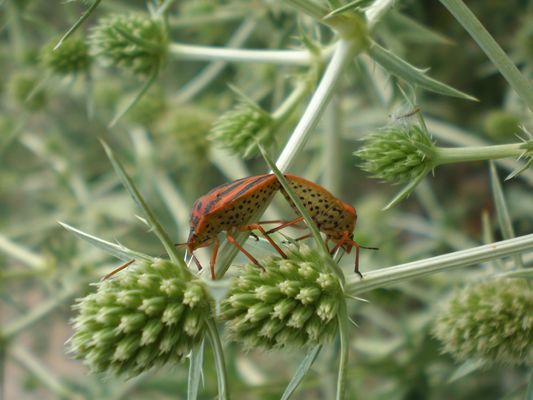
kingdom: Animalia
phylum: Arthropoda
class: Insecta
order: Hemiptera
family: Pentatomidae
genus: Graphosoma
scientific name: Graphosoma semipunctatum
